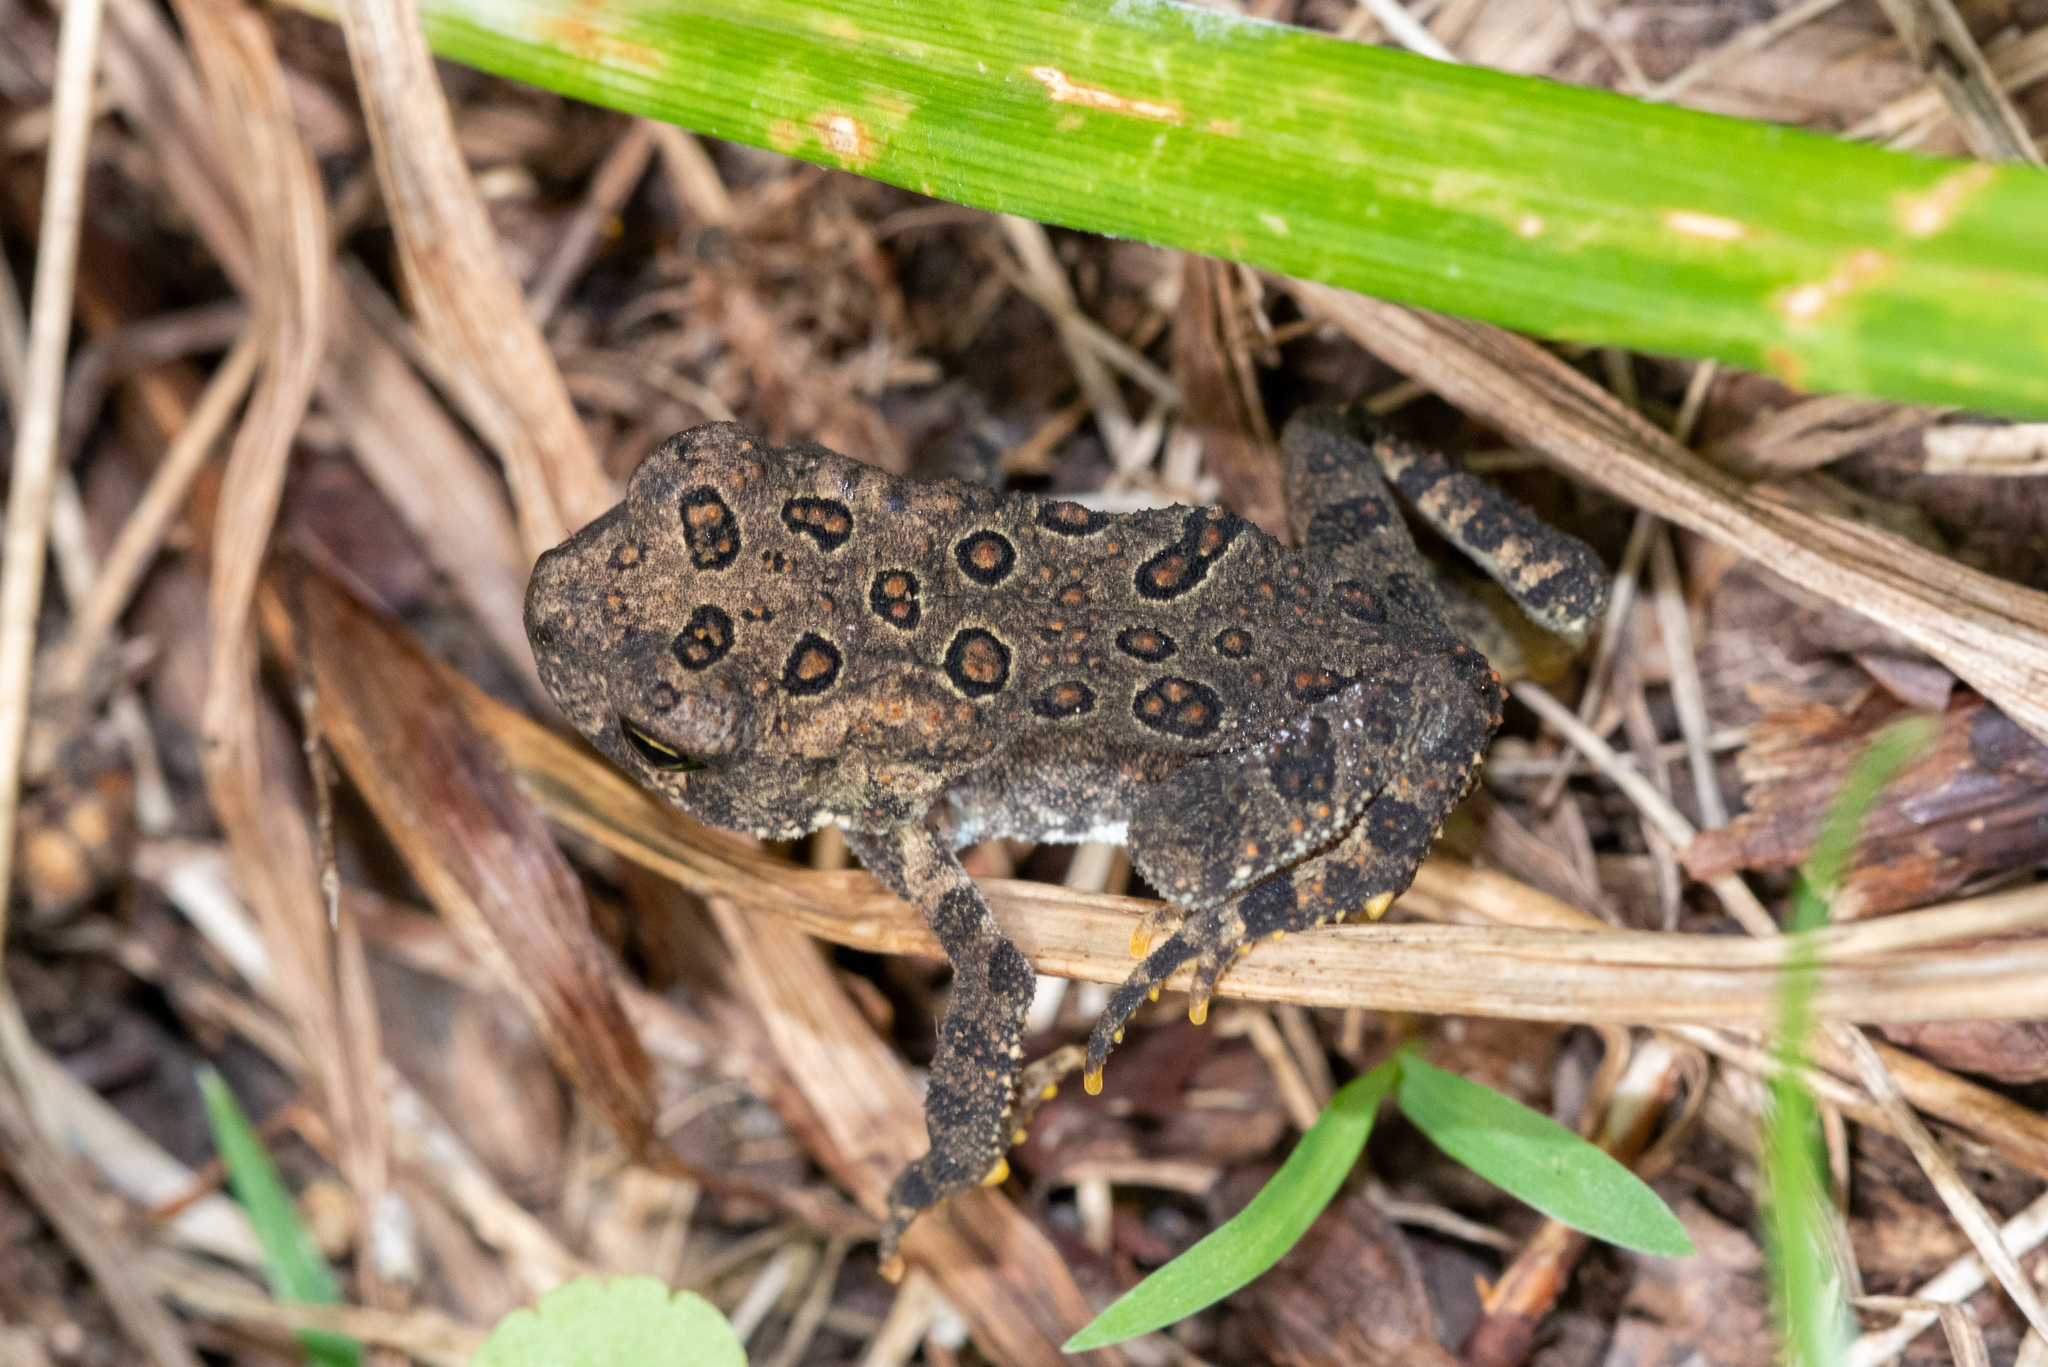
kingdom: Animalia
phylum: Chordata
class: Amphibia
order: Anura
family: Bufonidae
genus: Anaxyrus
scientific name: Anaxyrus americanus
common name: American toad
